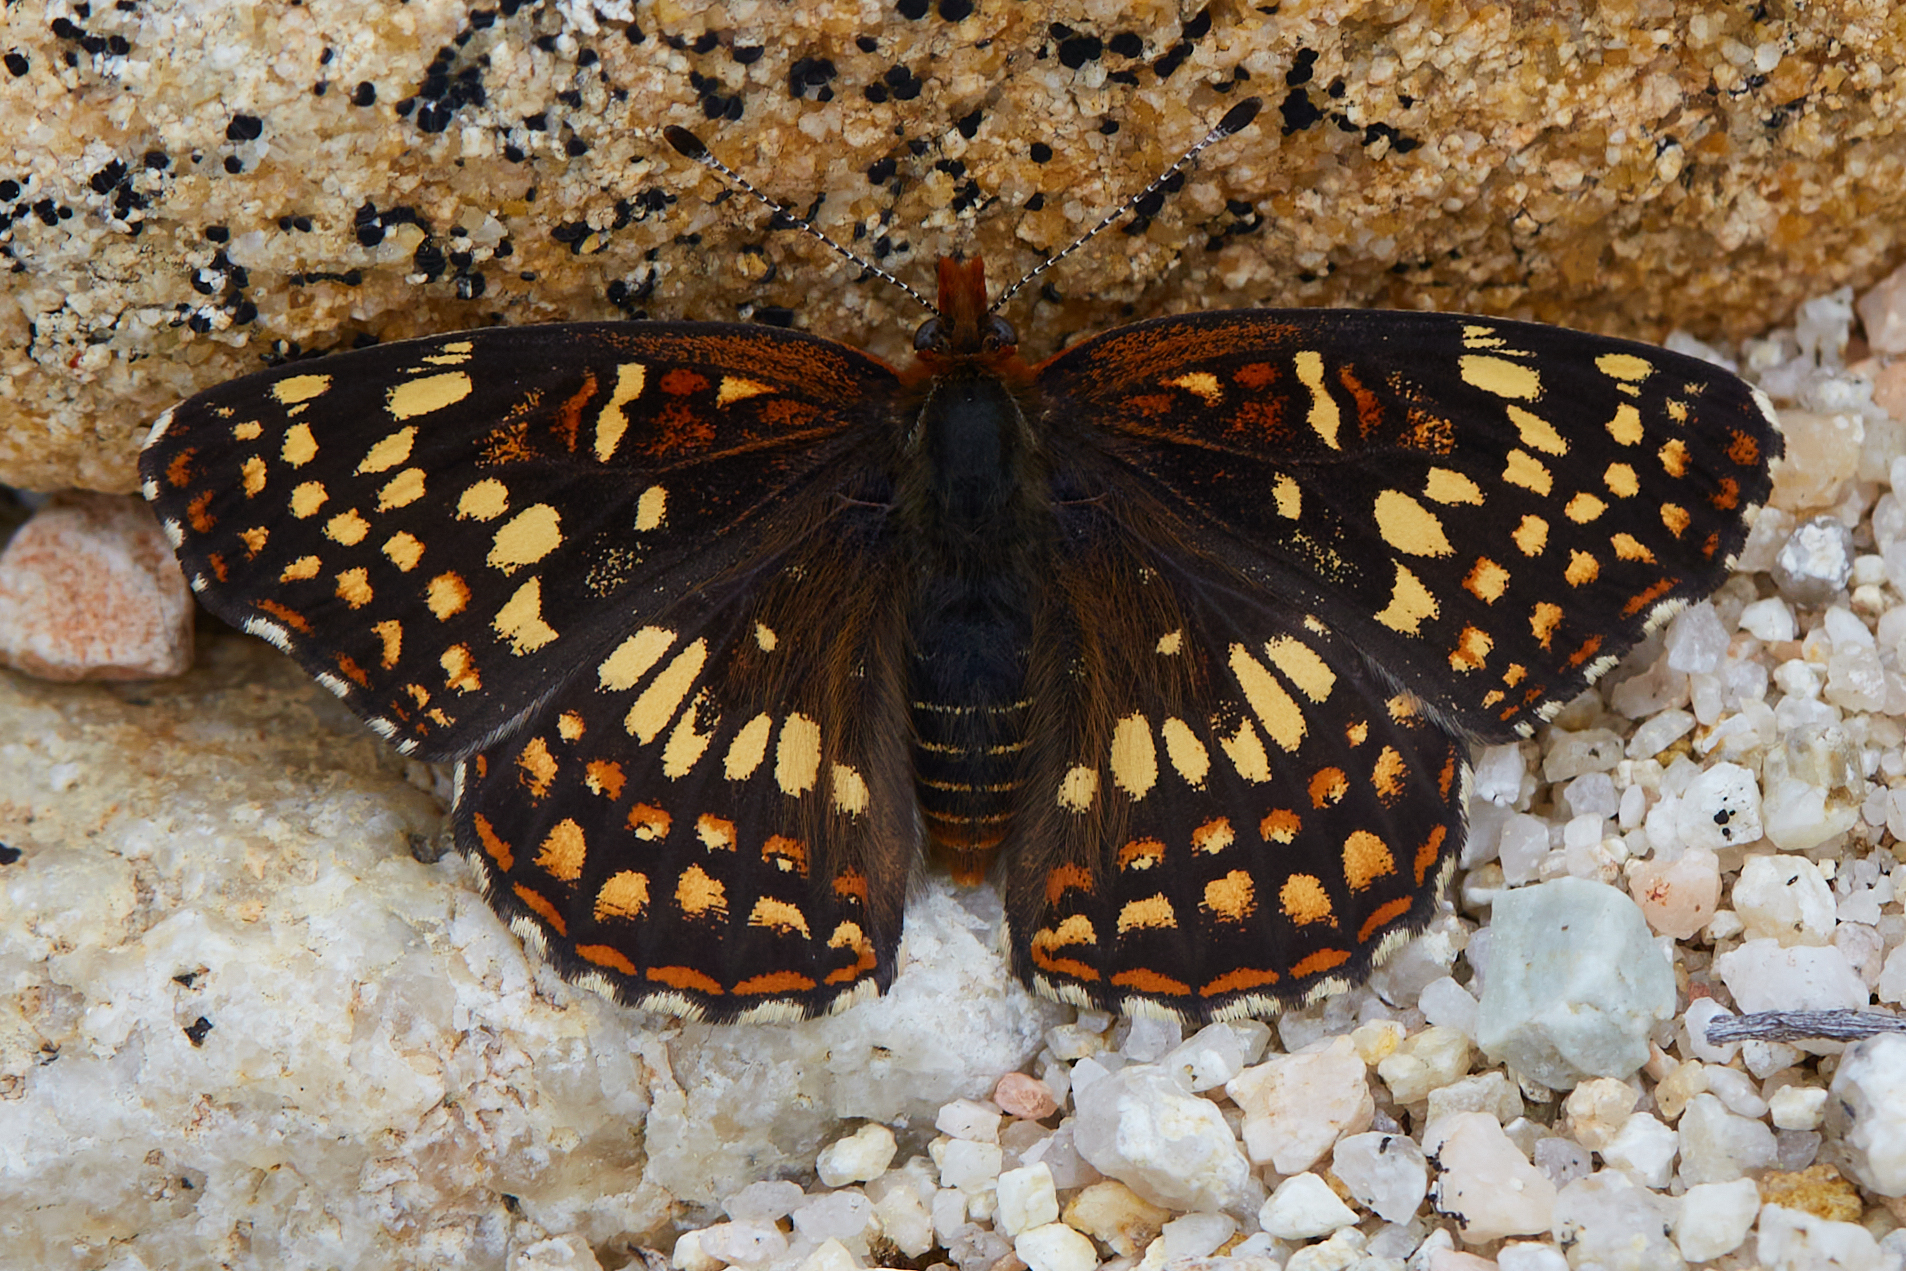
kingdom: Animalia
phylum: Arthropoda
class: Insecta
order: Lepidoptera
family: Nymphalidae
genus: Chlosyne
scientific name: Chlosyne gabbii
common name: Gabb's checkerspot
